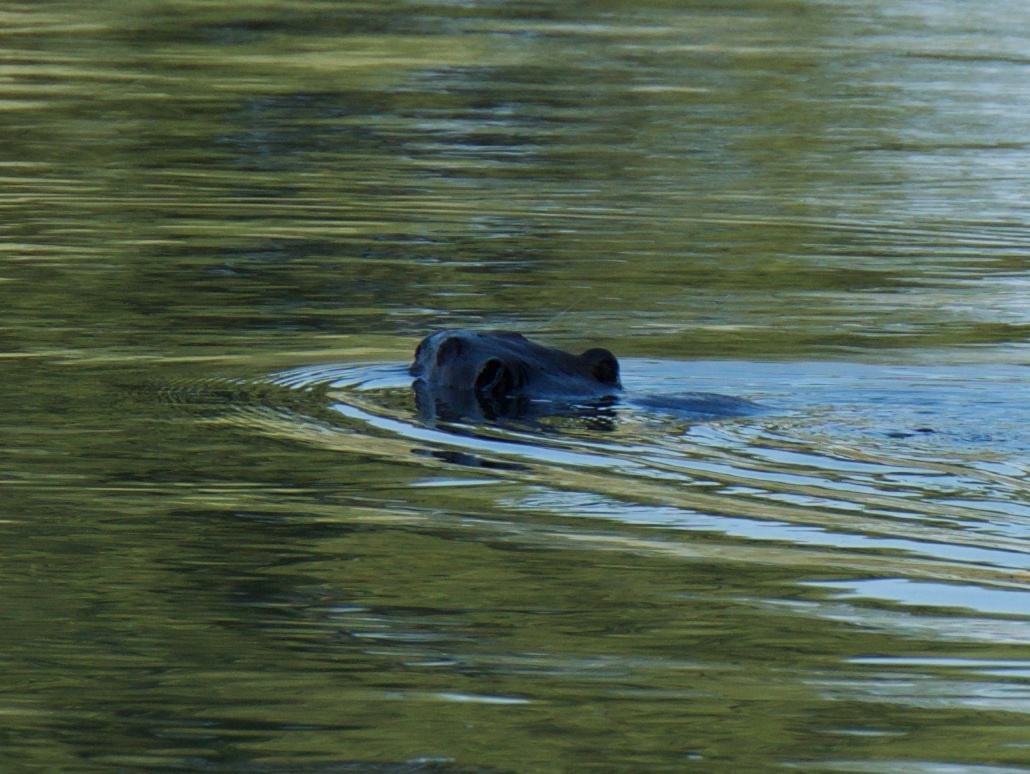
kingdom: Animalia
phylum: Chordata
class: Mammalia
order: Carnivora
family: Mustelidae
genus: Lontra
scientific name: Lontra canadensis
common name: North american river otter
